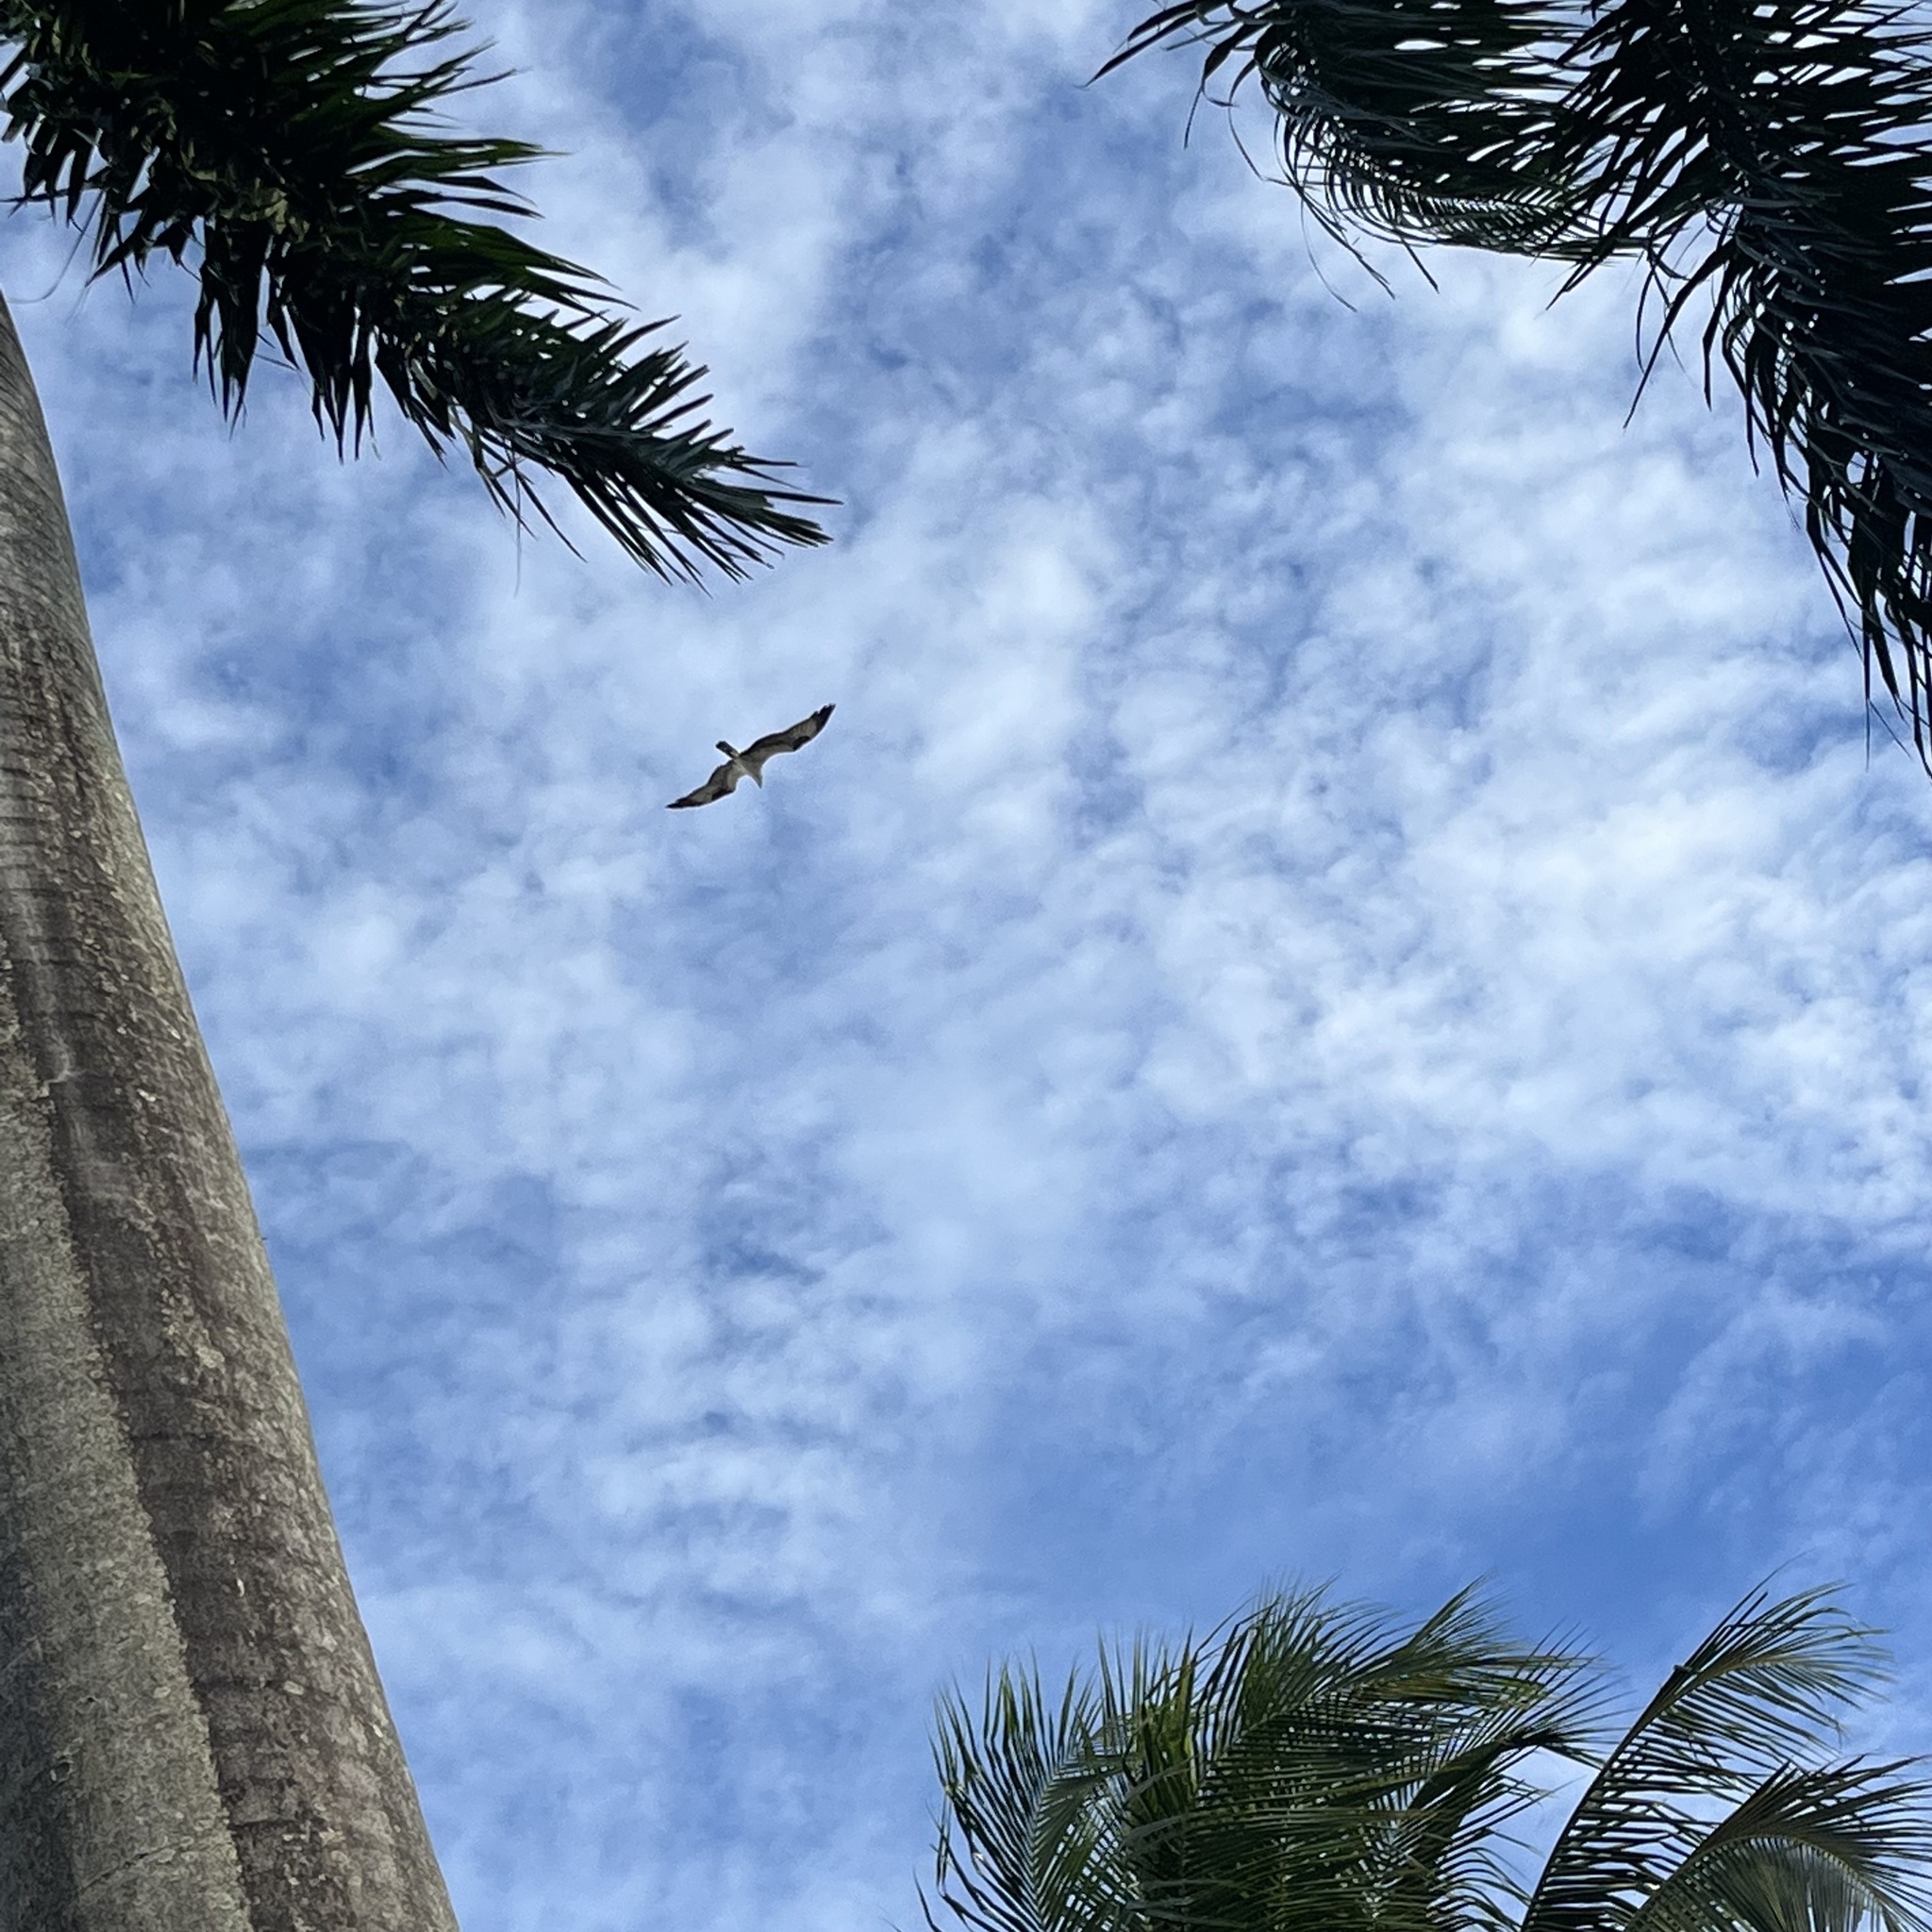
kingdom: Animalia
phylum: Chordata
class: Aves
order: Accipitriformes
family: Pandionidae
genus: Pandion
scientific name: Pandion haliaetus
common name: Osprey
